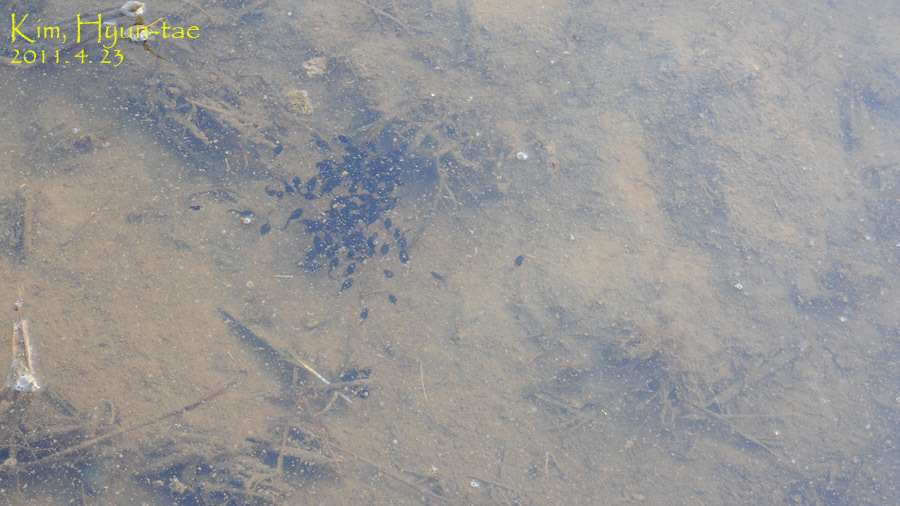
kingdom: Animalia
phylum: Chordata
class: Amphibia
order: Anura
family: Bufonidae
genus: Bufo
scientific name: Bufo gargarizans
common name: Asiatic toad
